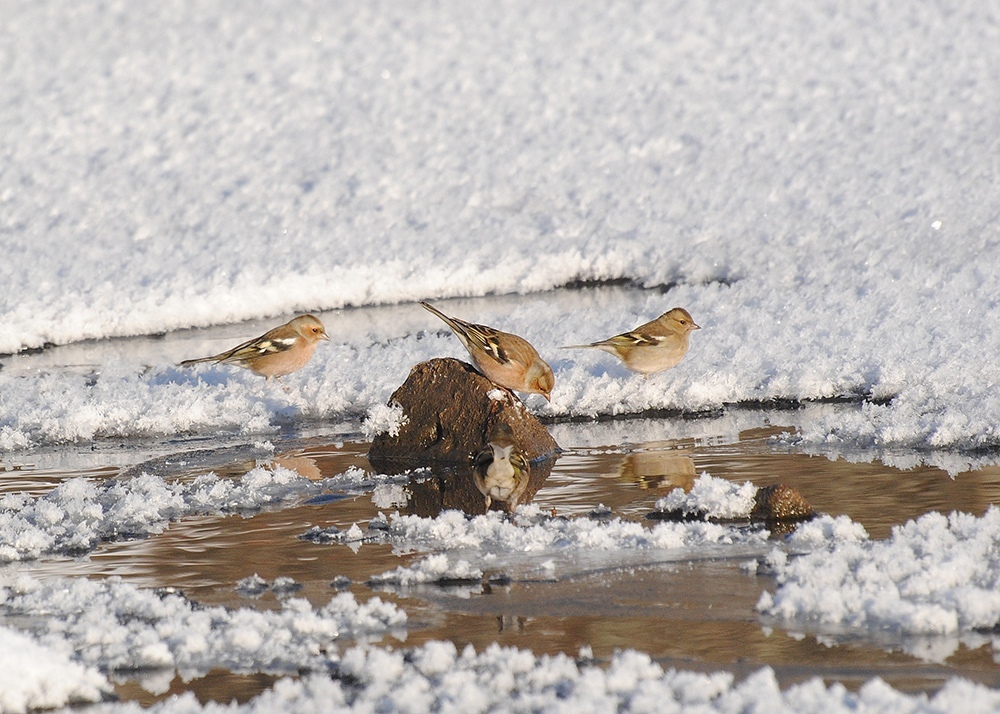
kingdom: Animalia
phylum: Chordata
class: Aves
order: Passeriformes
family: Fringillidae
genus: Fringilla
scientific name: Fringilla coelebs
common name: Common chaffinch
